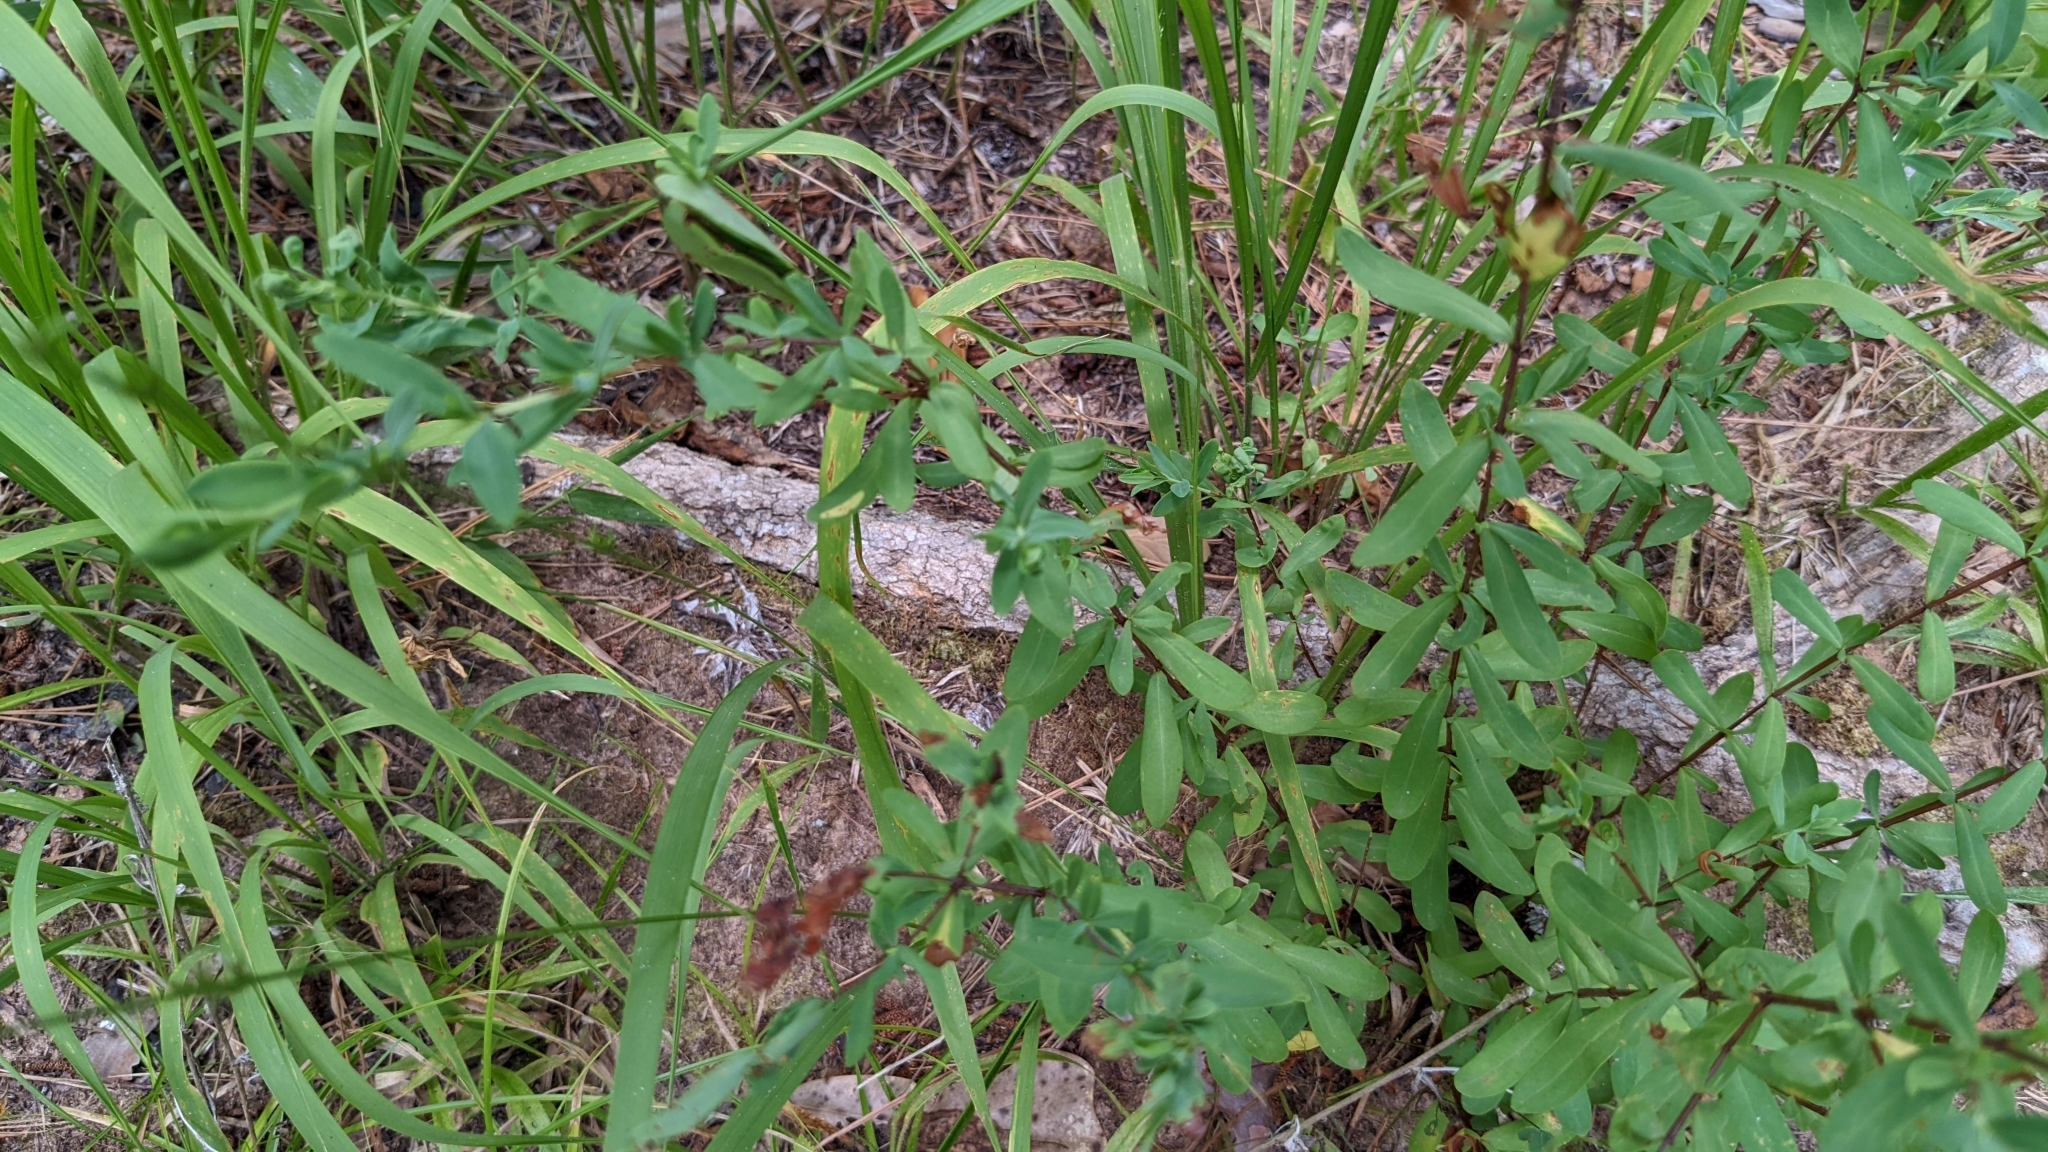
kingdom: Plantae
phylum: Tracheophyta
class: Magnoliopsida
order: Malpighiales
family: Hypericaceae
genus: Hypericum
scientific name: Hypericum hypericoides
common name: St. andrew's cross
